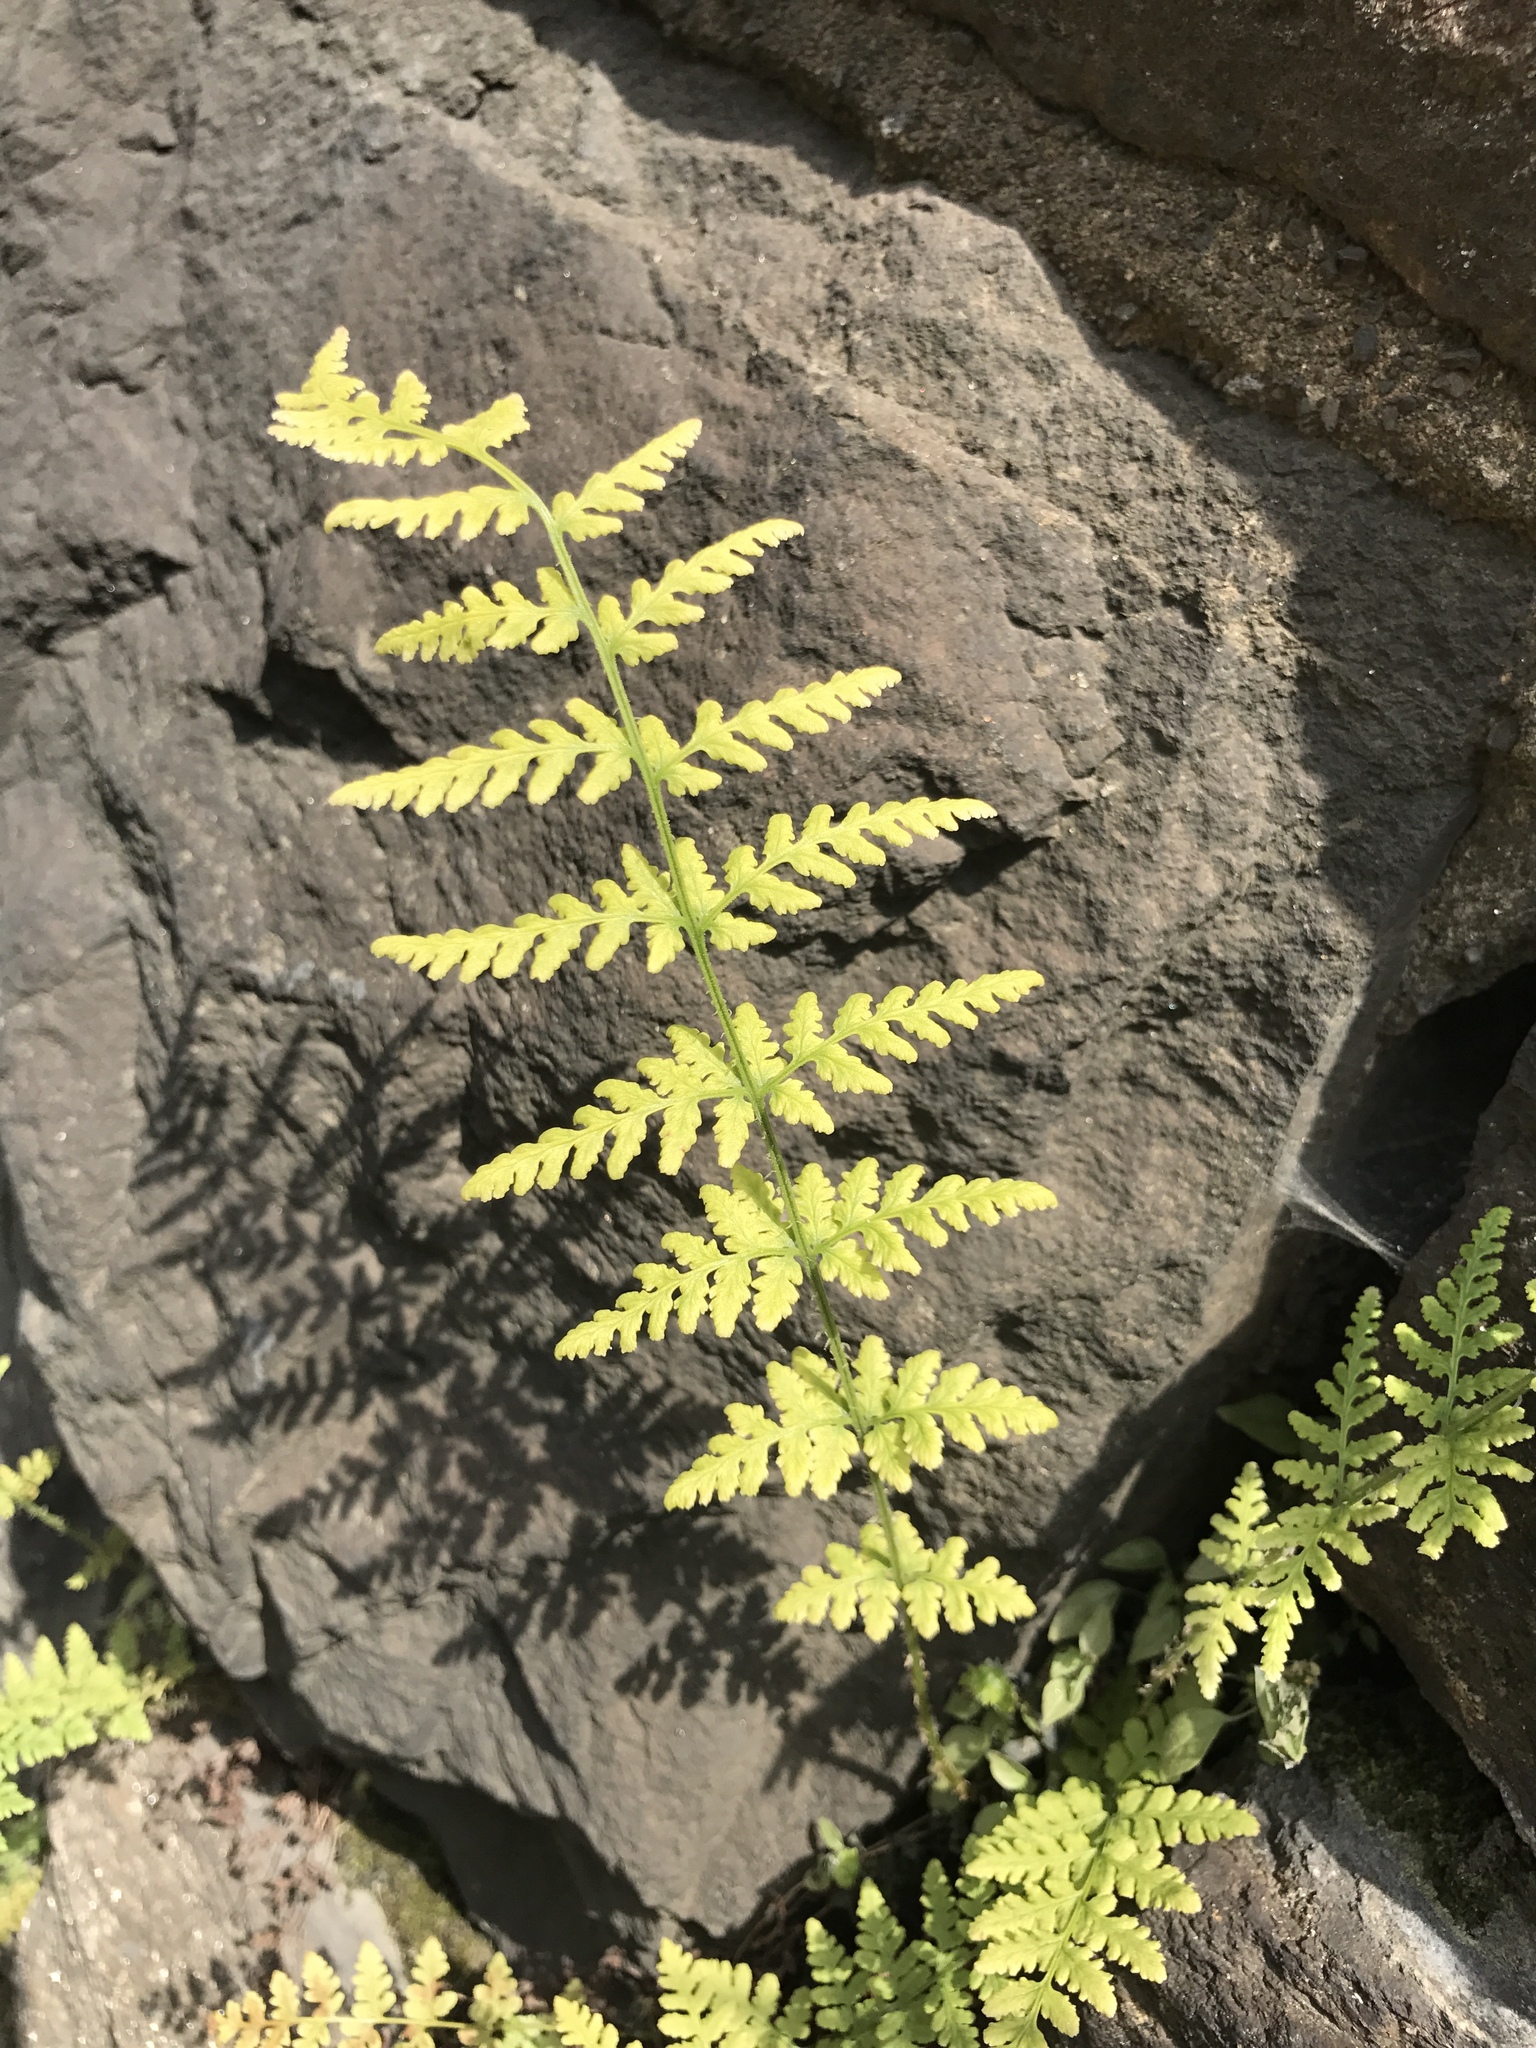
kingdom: Plantae
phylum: Tracheophyta
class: Polypodiopsida
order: Polypodiales
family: Woodsiaceae
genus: Physematium
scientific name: Physematium obtusum
